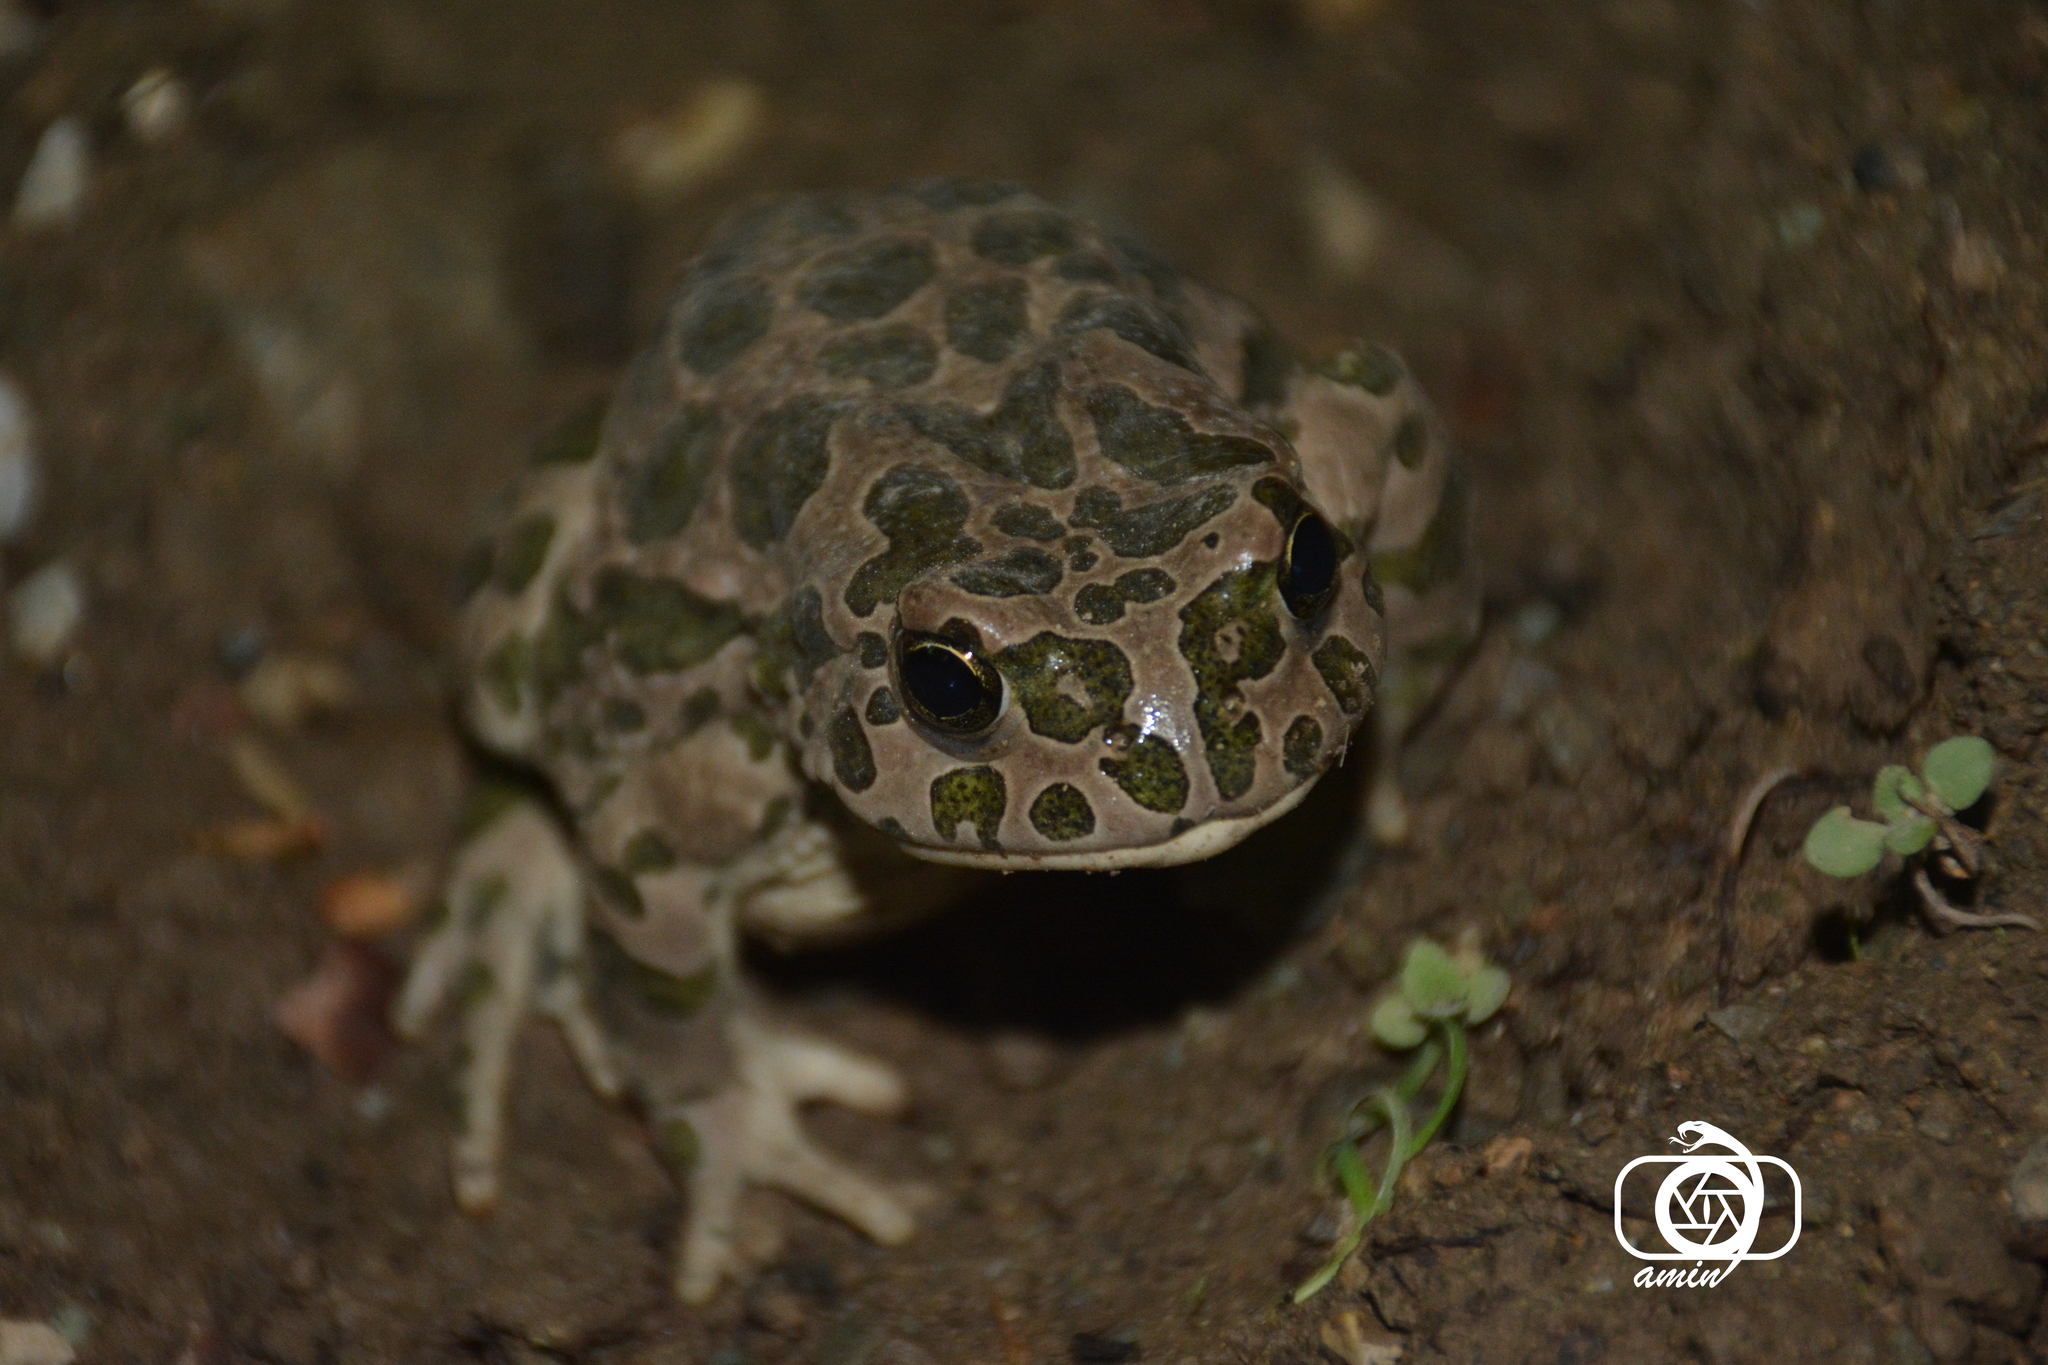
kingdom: Animalia
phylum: Chordata
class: Amphibia
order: Anura
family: Bufonidae
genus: Bufotes
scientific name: Bufotes viridis
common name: European green toad
